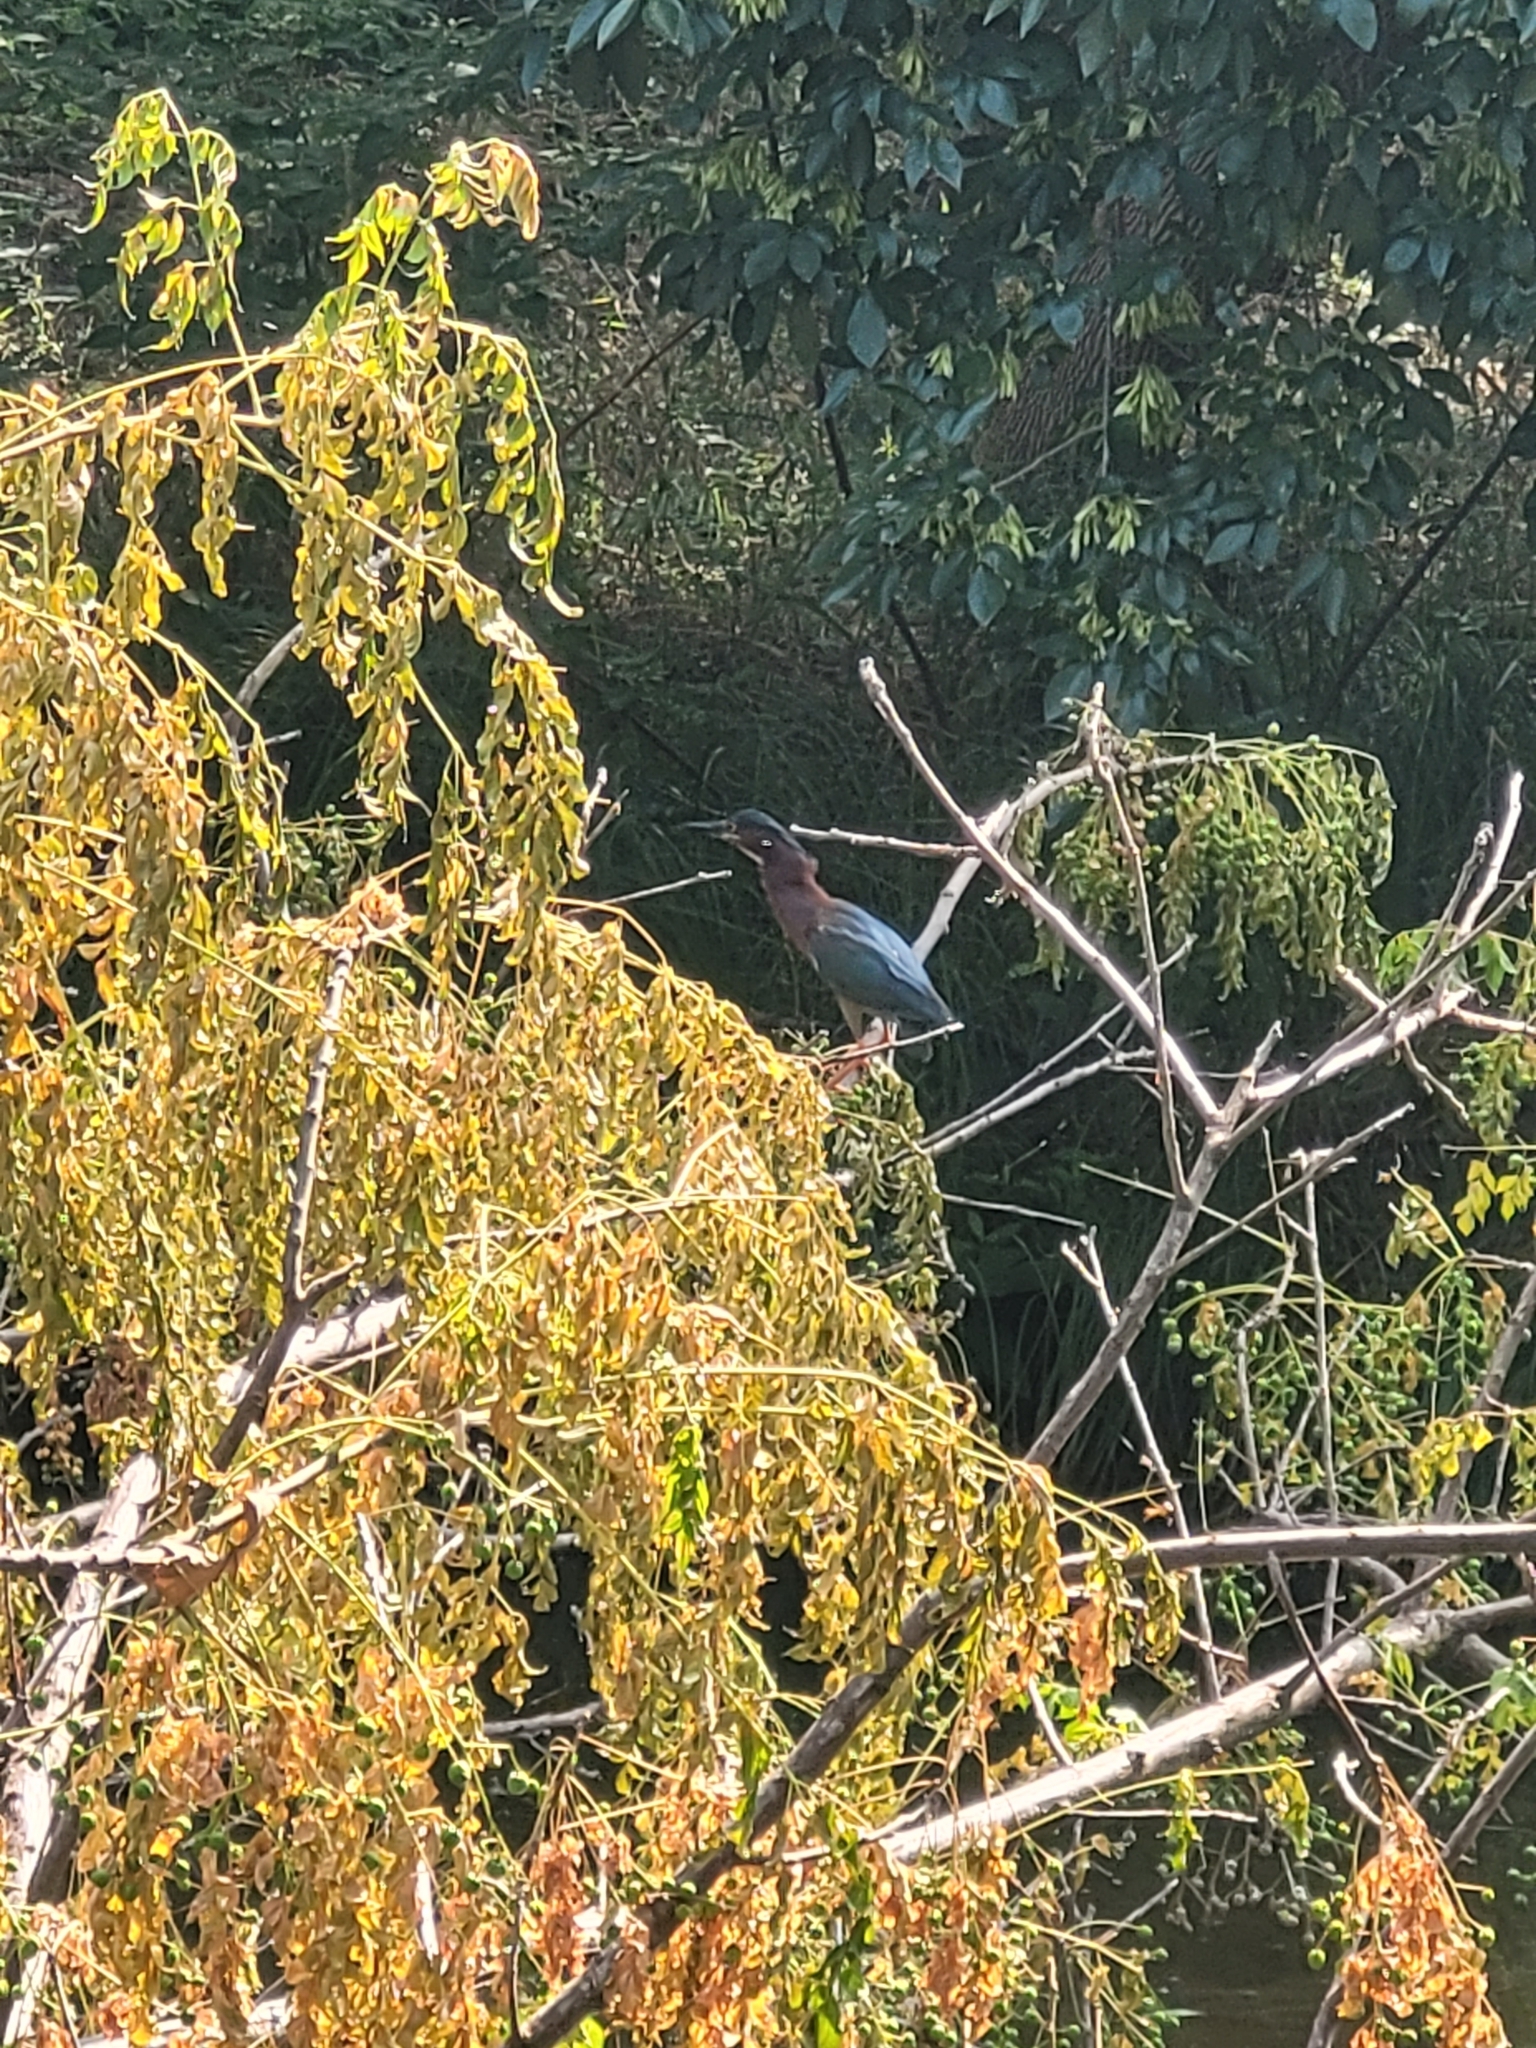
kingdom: Animalia
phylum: Chordata
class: Aves
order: Pelecaniformes
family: Ardeidae
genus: Butorides
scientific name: Butorides virescens
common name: Green heron
